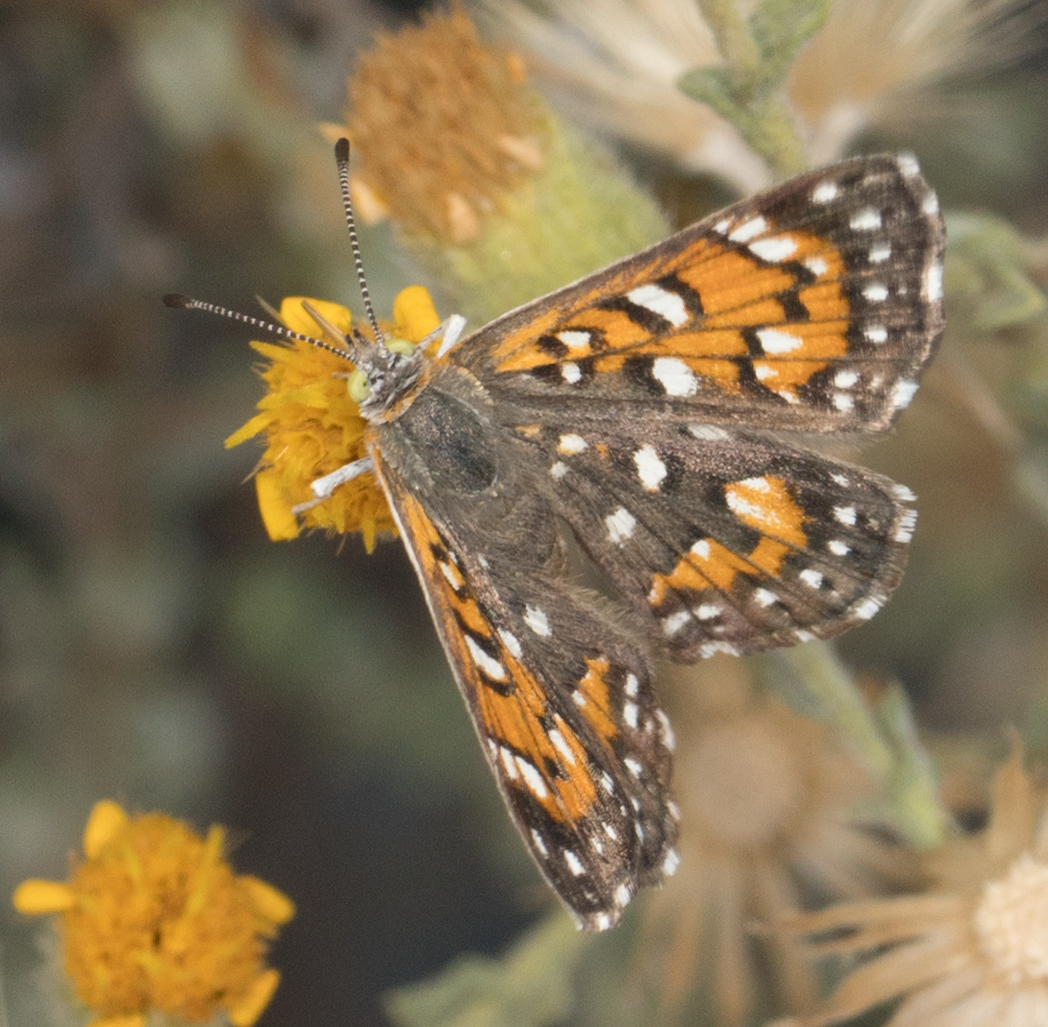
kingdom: Animalia
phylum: Arthropoda
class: Insecta
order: Lepidoptera
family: Riodinidae
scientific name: Riodinidae
